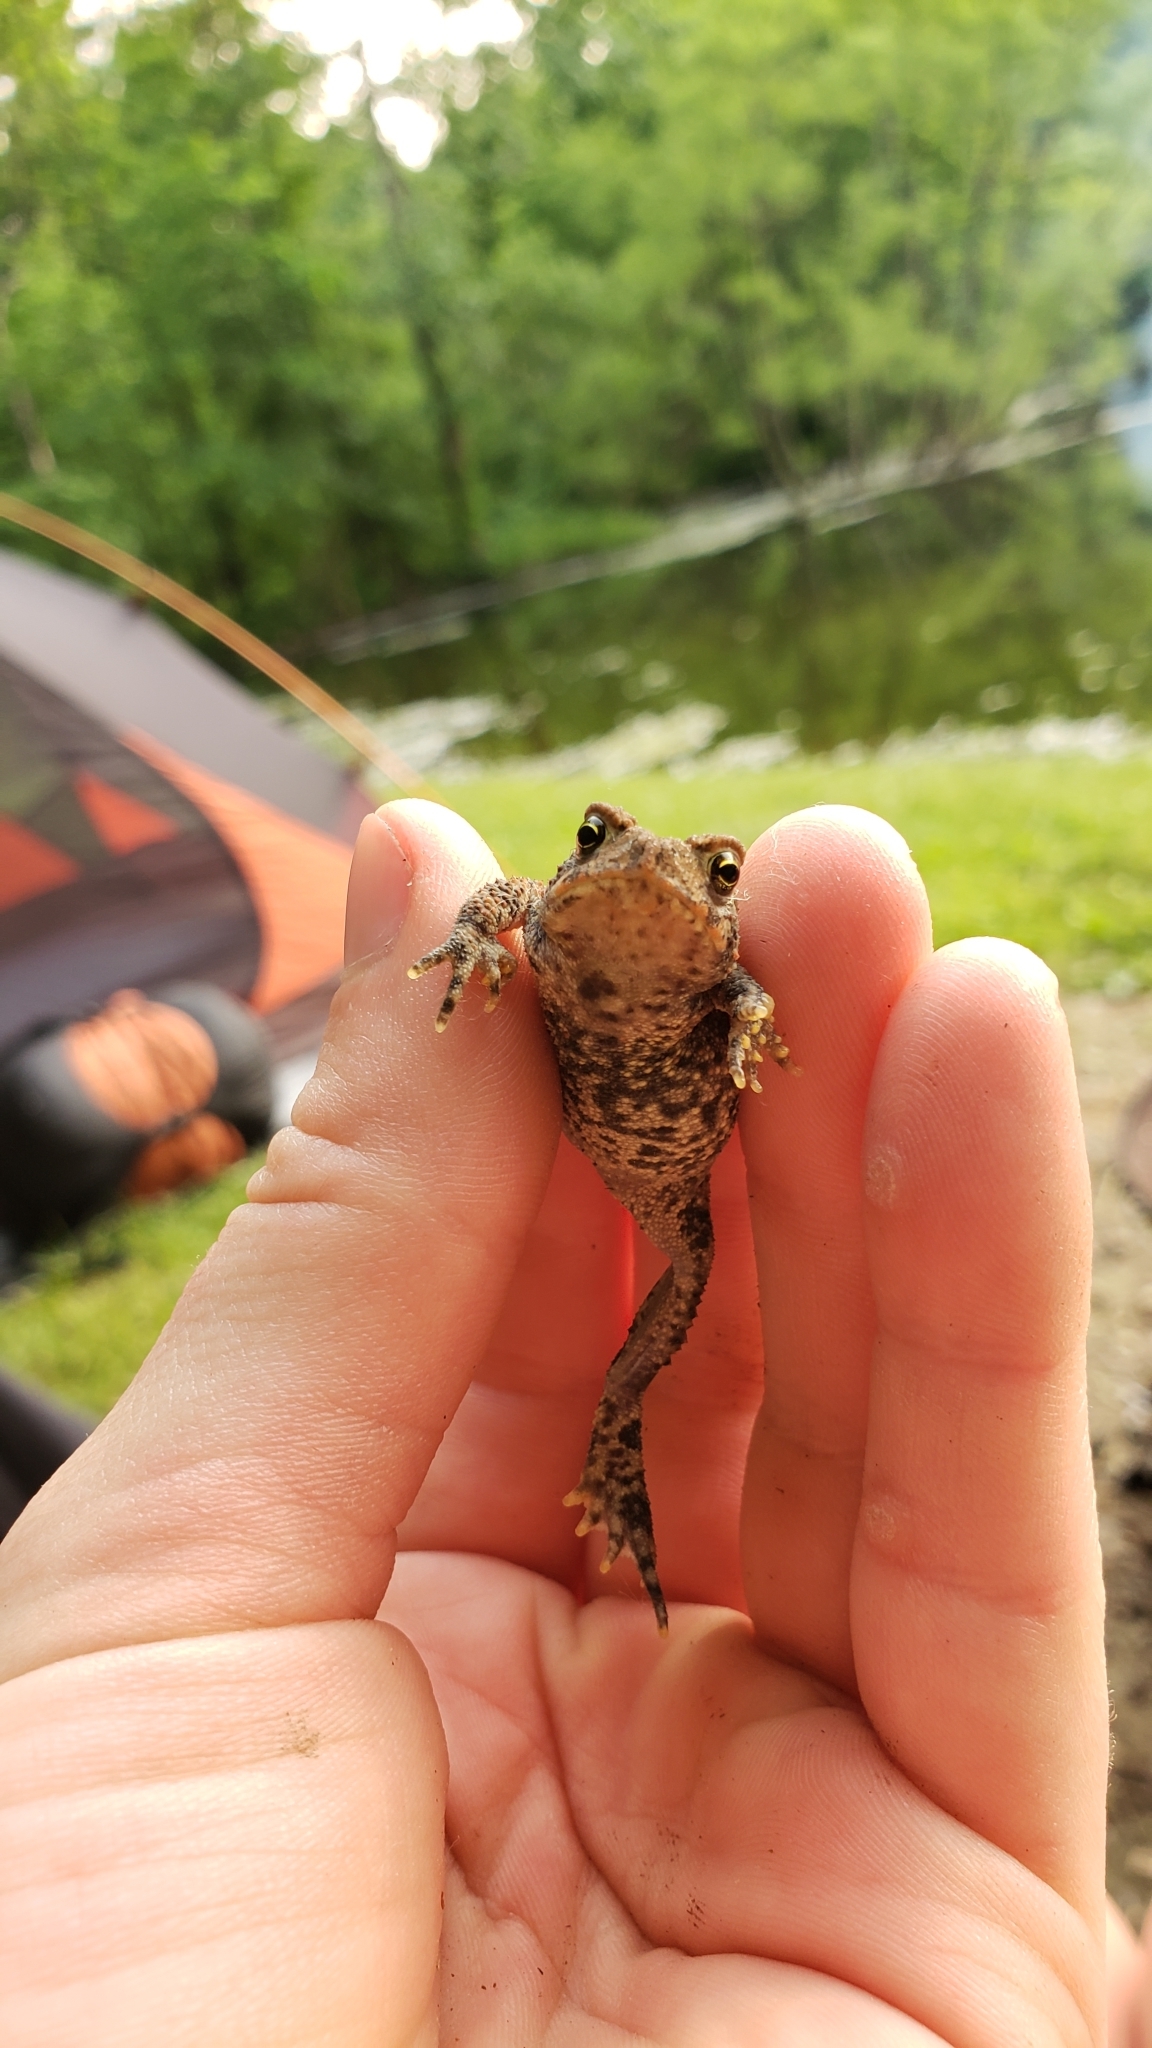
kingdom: Animalia
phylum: Chordata
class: Amphibia
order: Anura
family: Bufonidae
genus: Anaxyrus
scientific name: Anaxyrus americanus
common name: American toad
